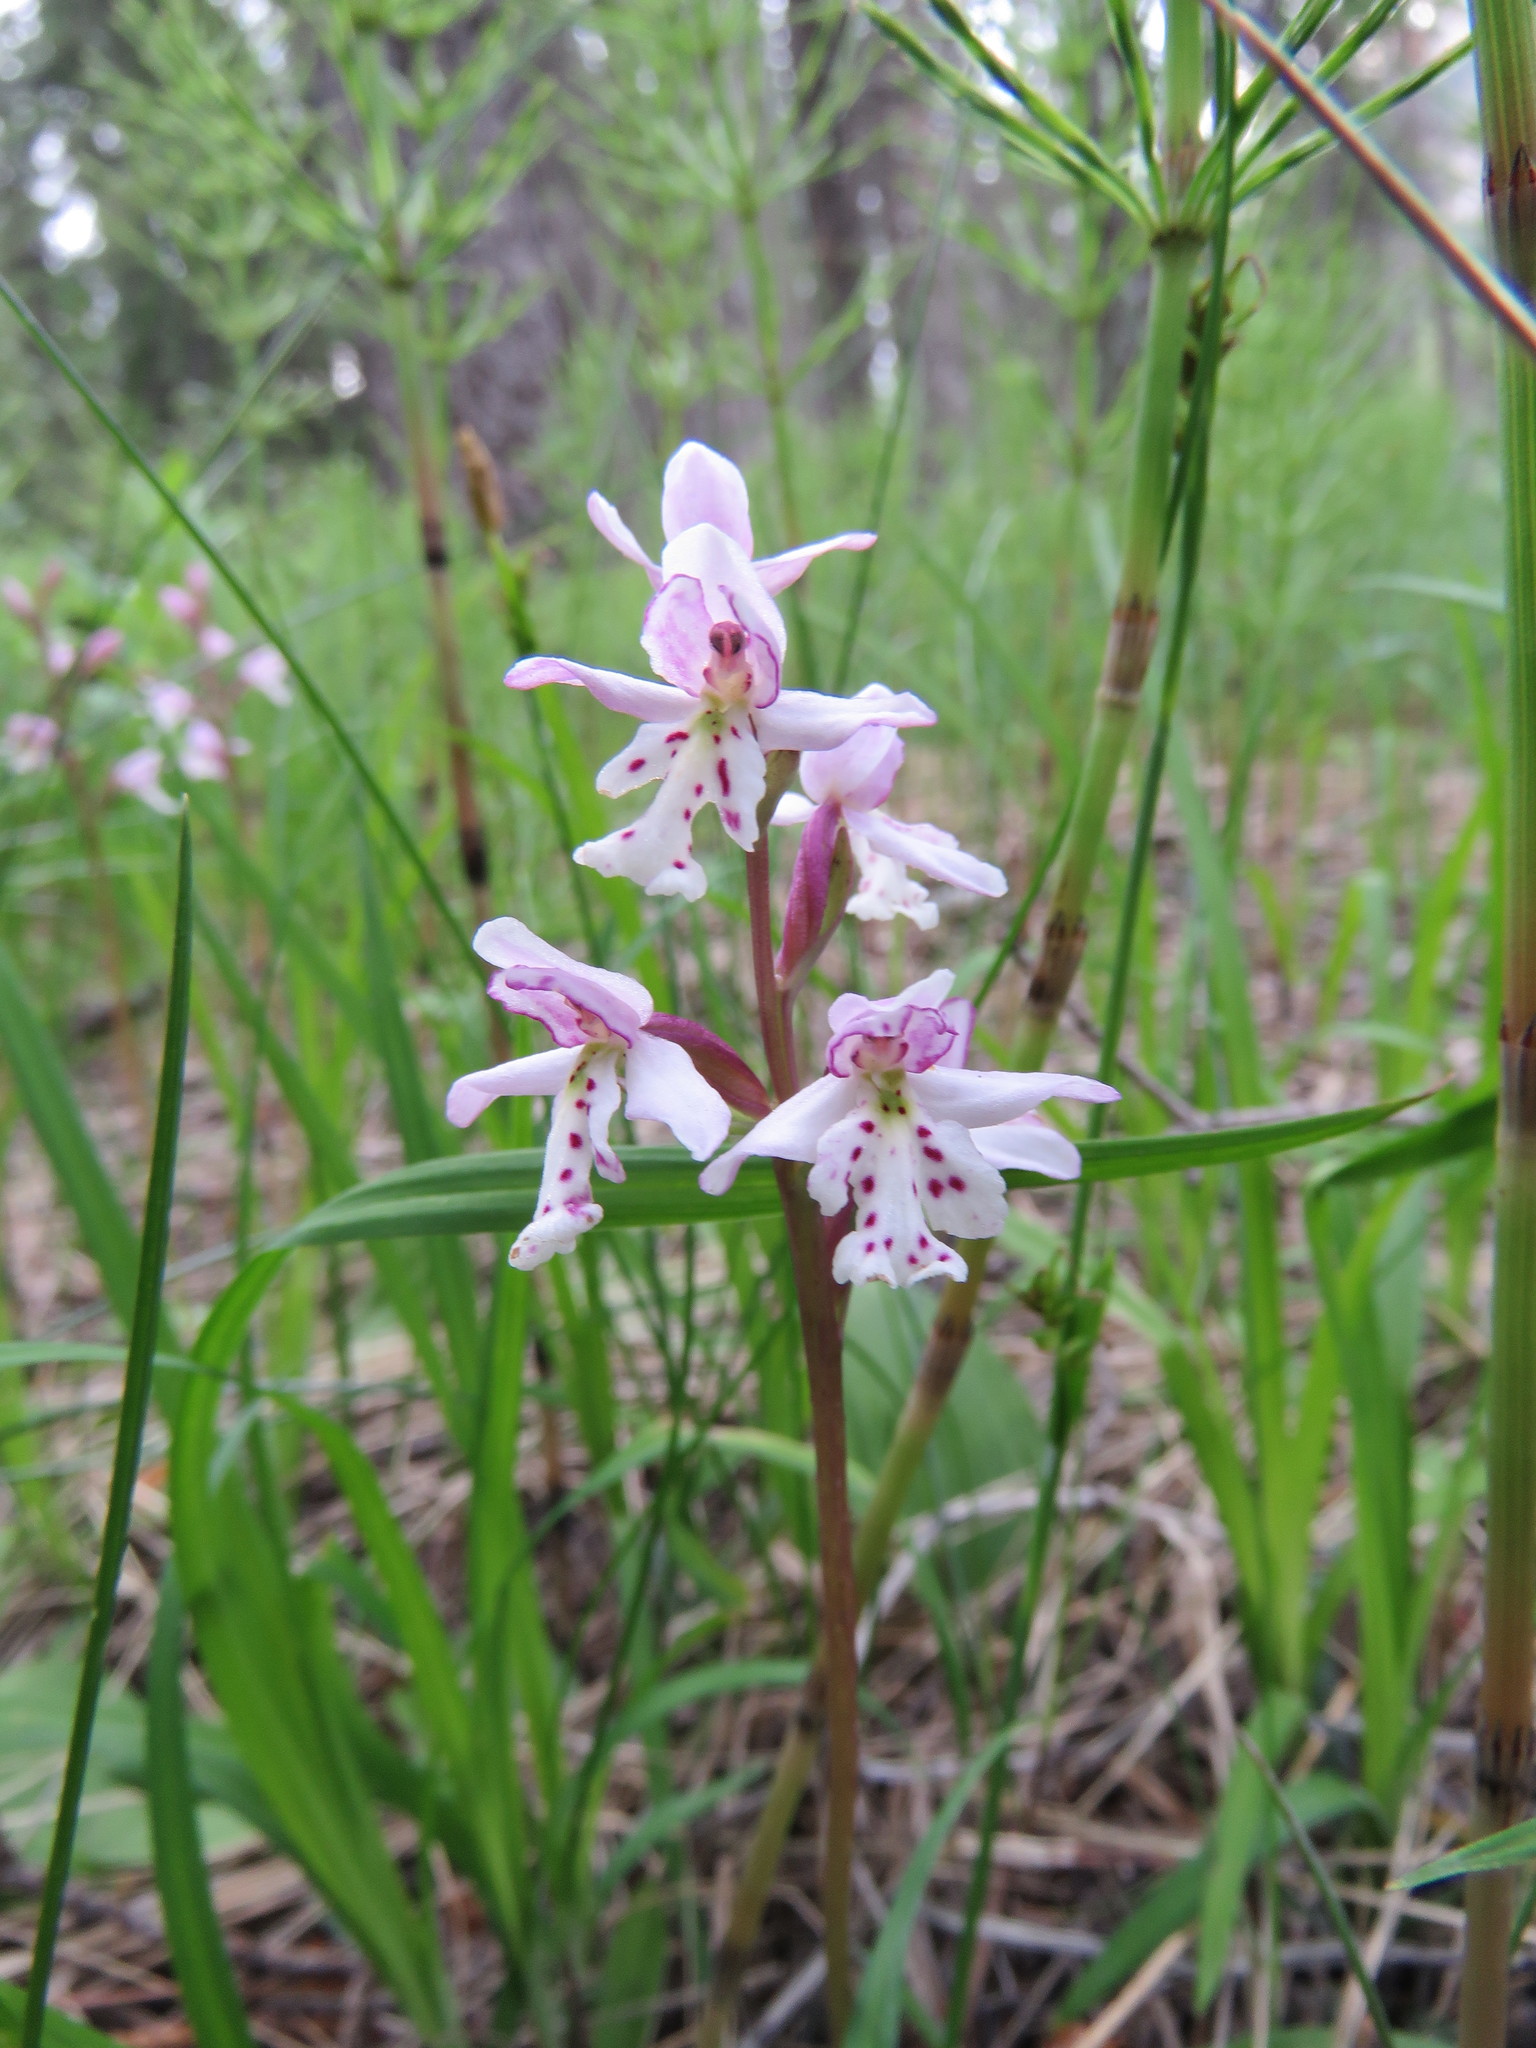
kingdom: Plantae
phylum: Tracheophyta
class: Liliopsida
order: Asparagales
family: Orchidaceae
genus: Galearis
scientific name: Galearis rotundifolia
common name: One-leaved orchis
